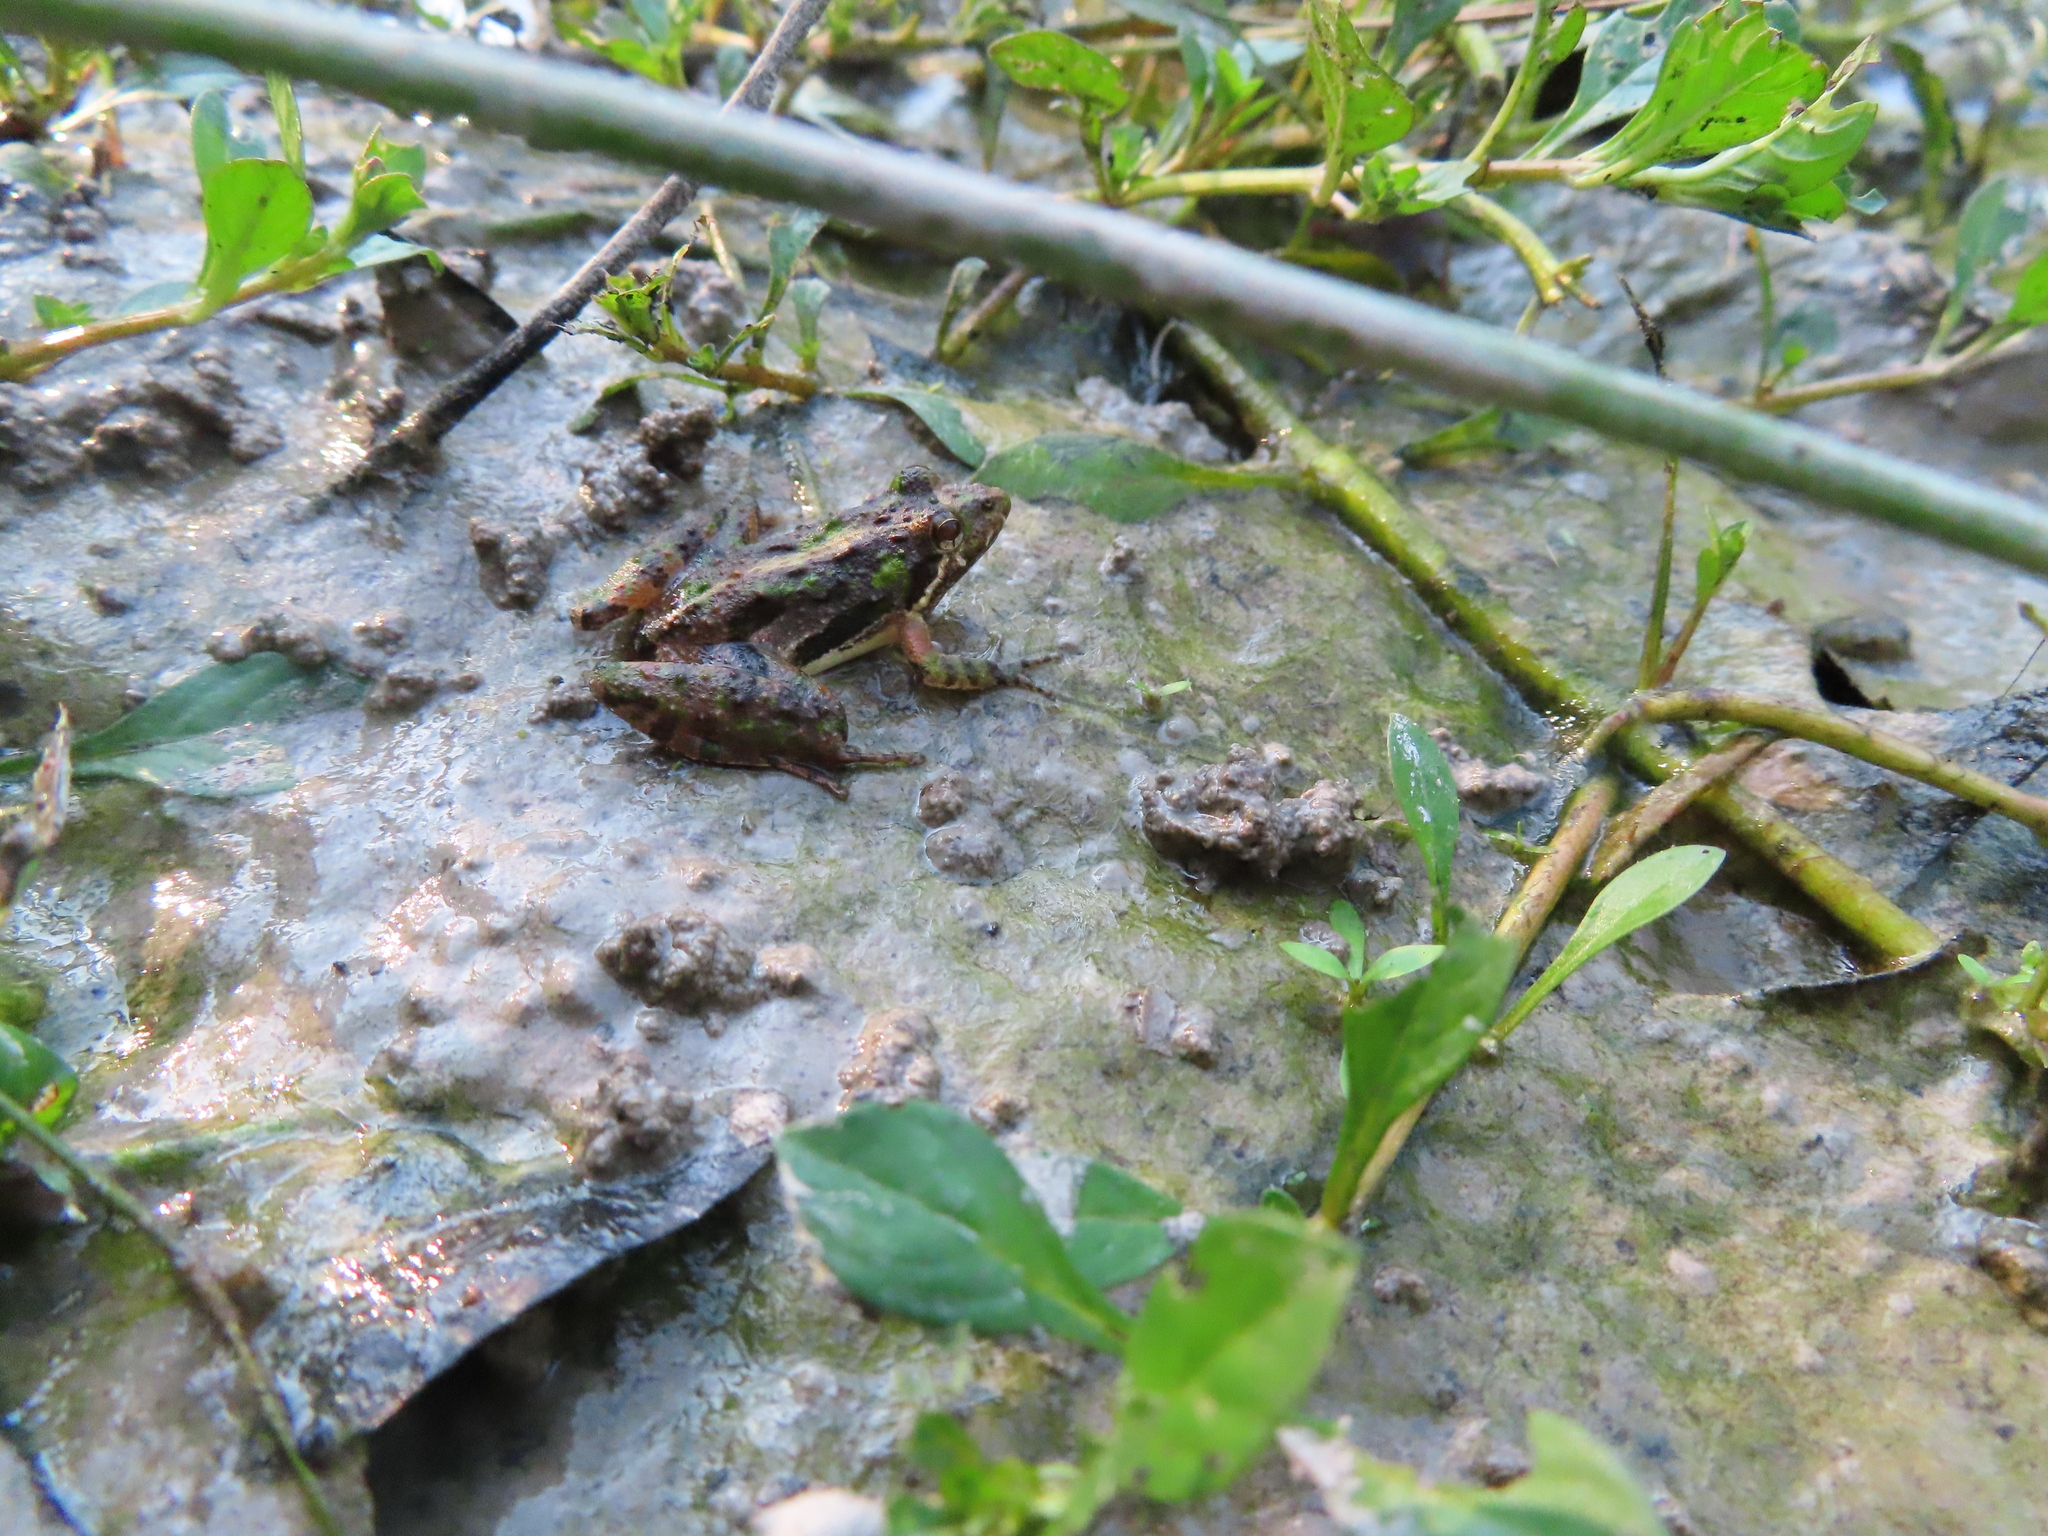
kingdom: Animalia
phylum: Chordata
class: Amphibia
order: Anura
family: Hylidae
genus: Acris
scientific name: Acris
